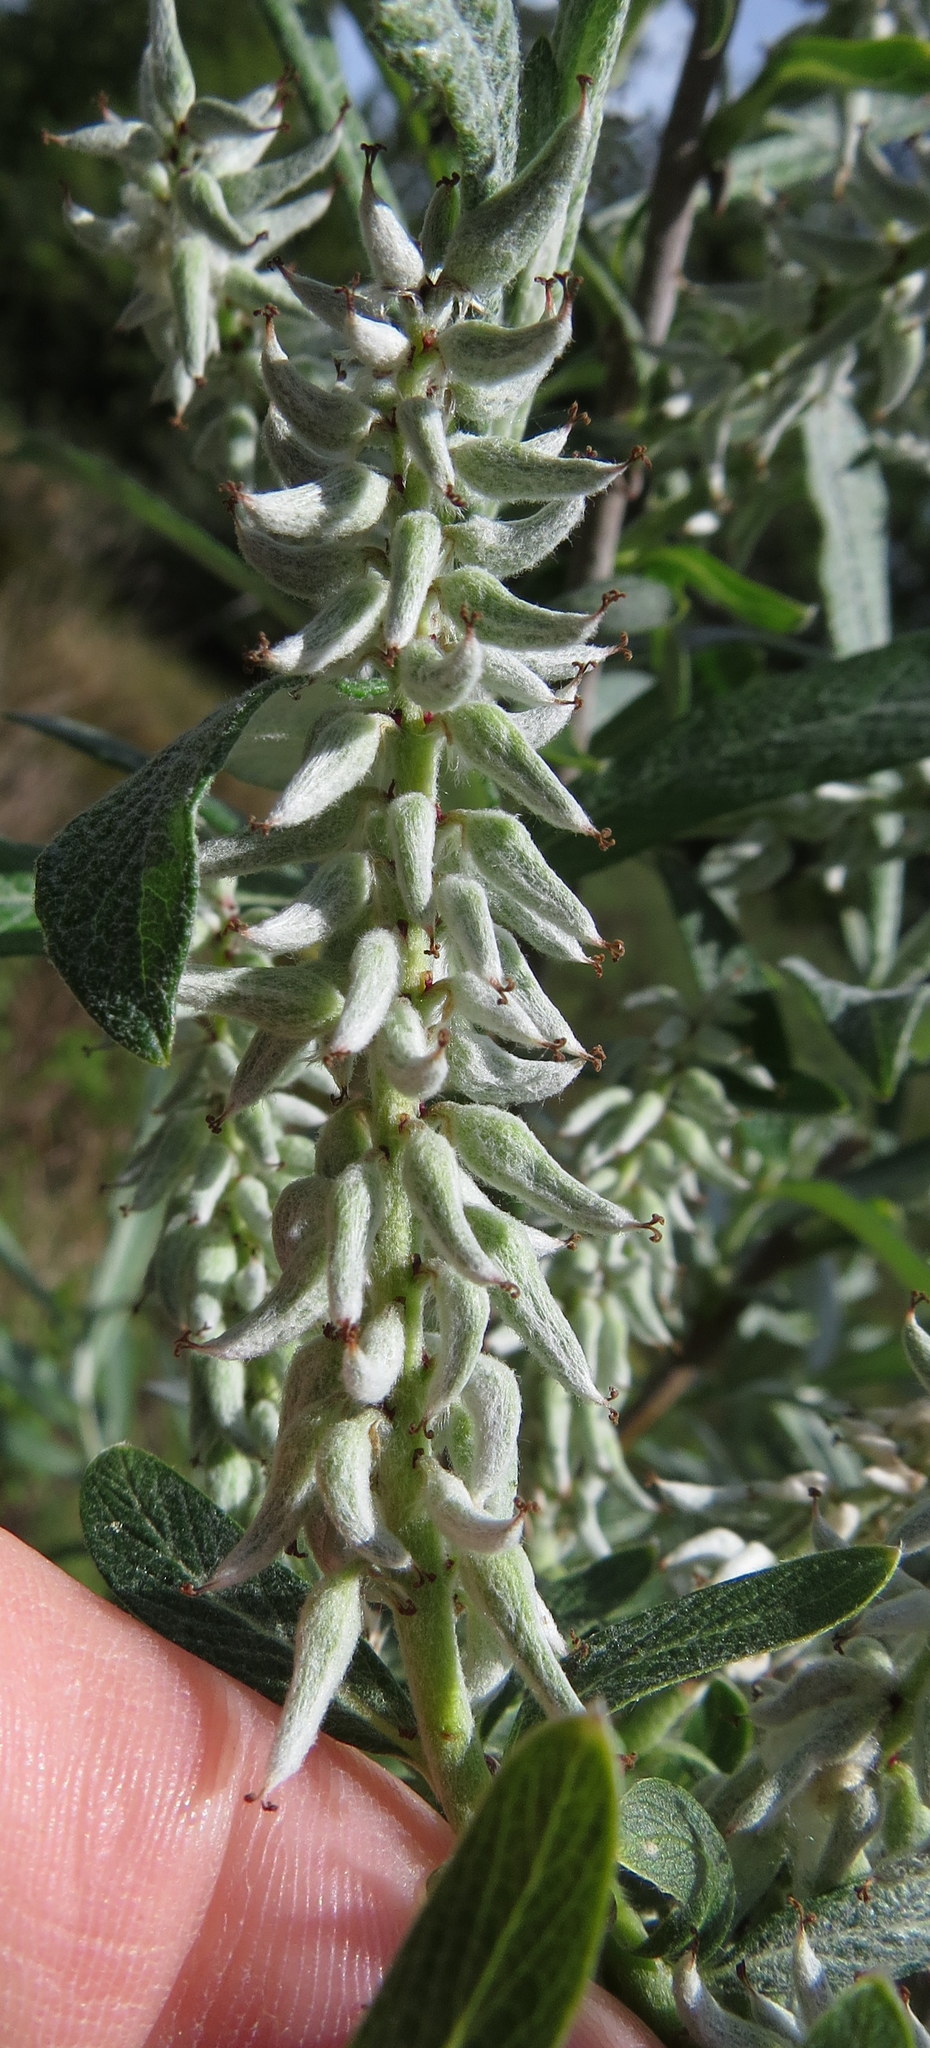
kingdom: Plantae
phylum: Tracheophyta
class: Magnoliopsida
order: Malpighiales
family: Salicaceae
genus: Salix
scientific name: Salix candida
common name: Hoary willow
